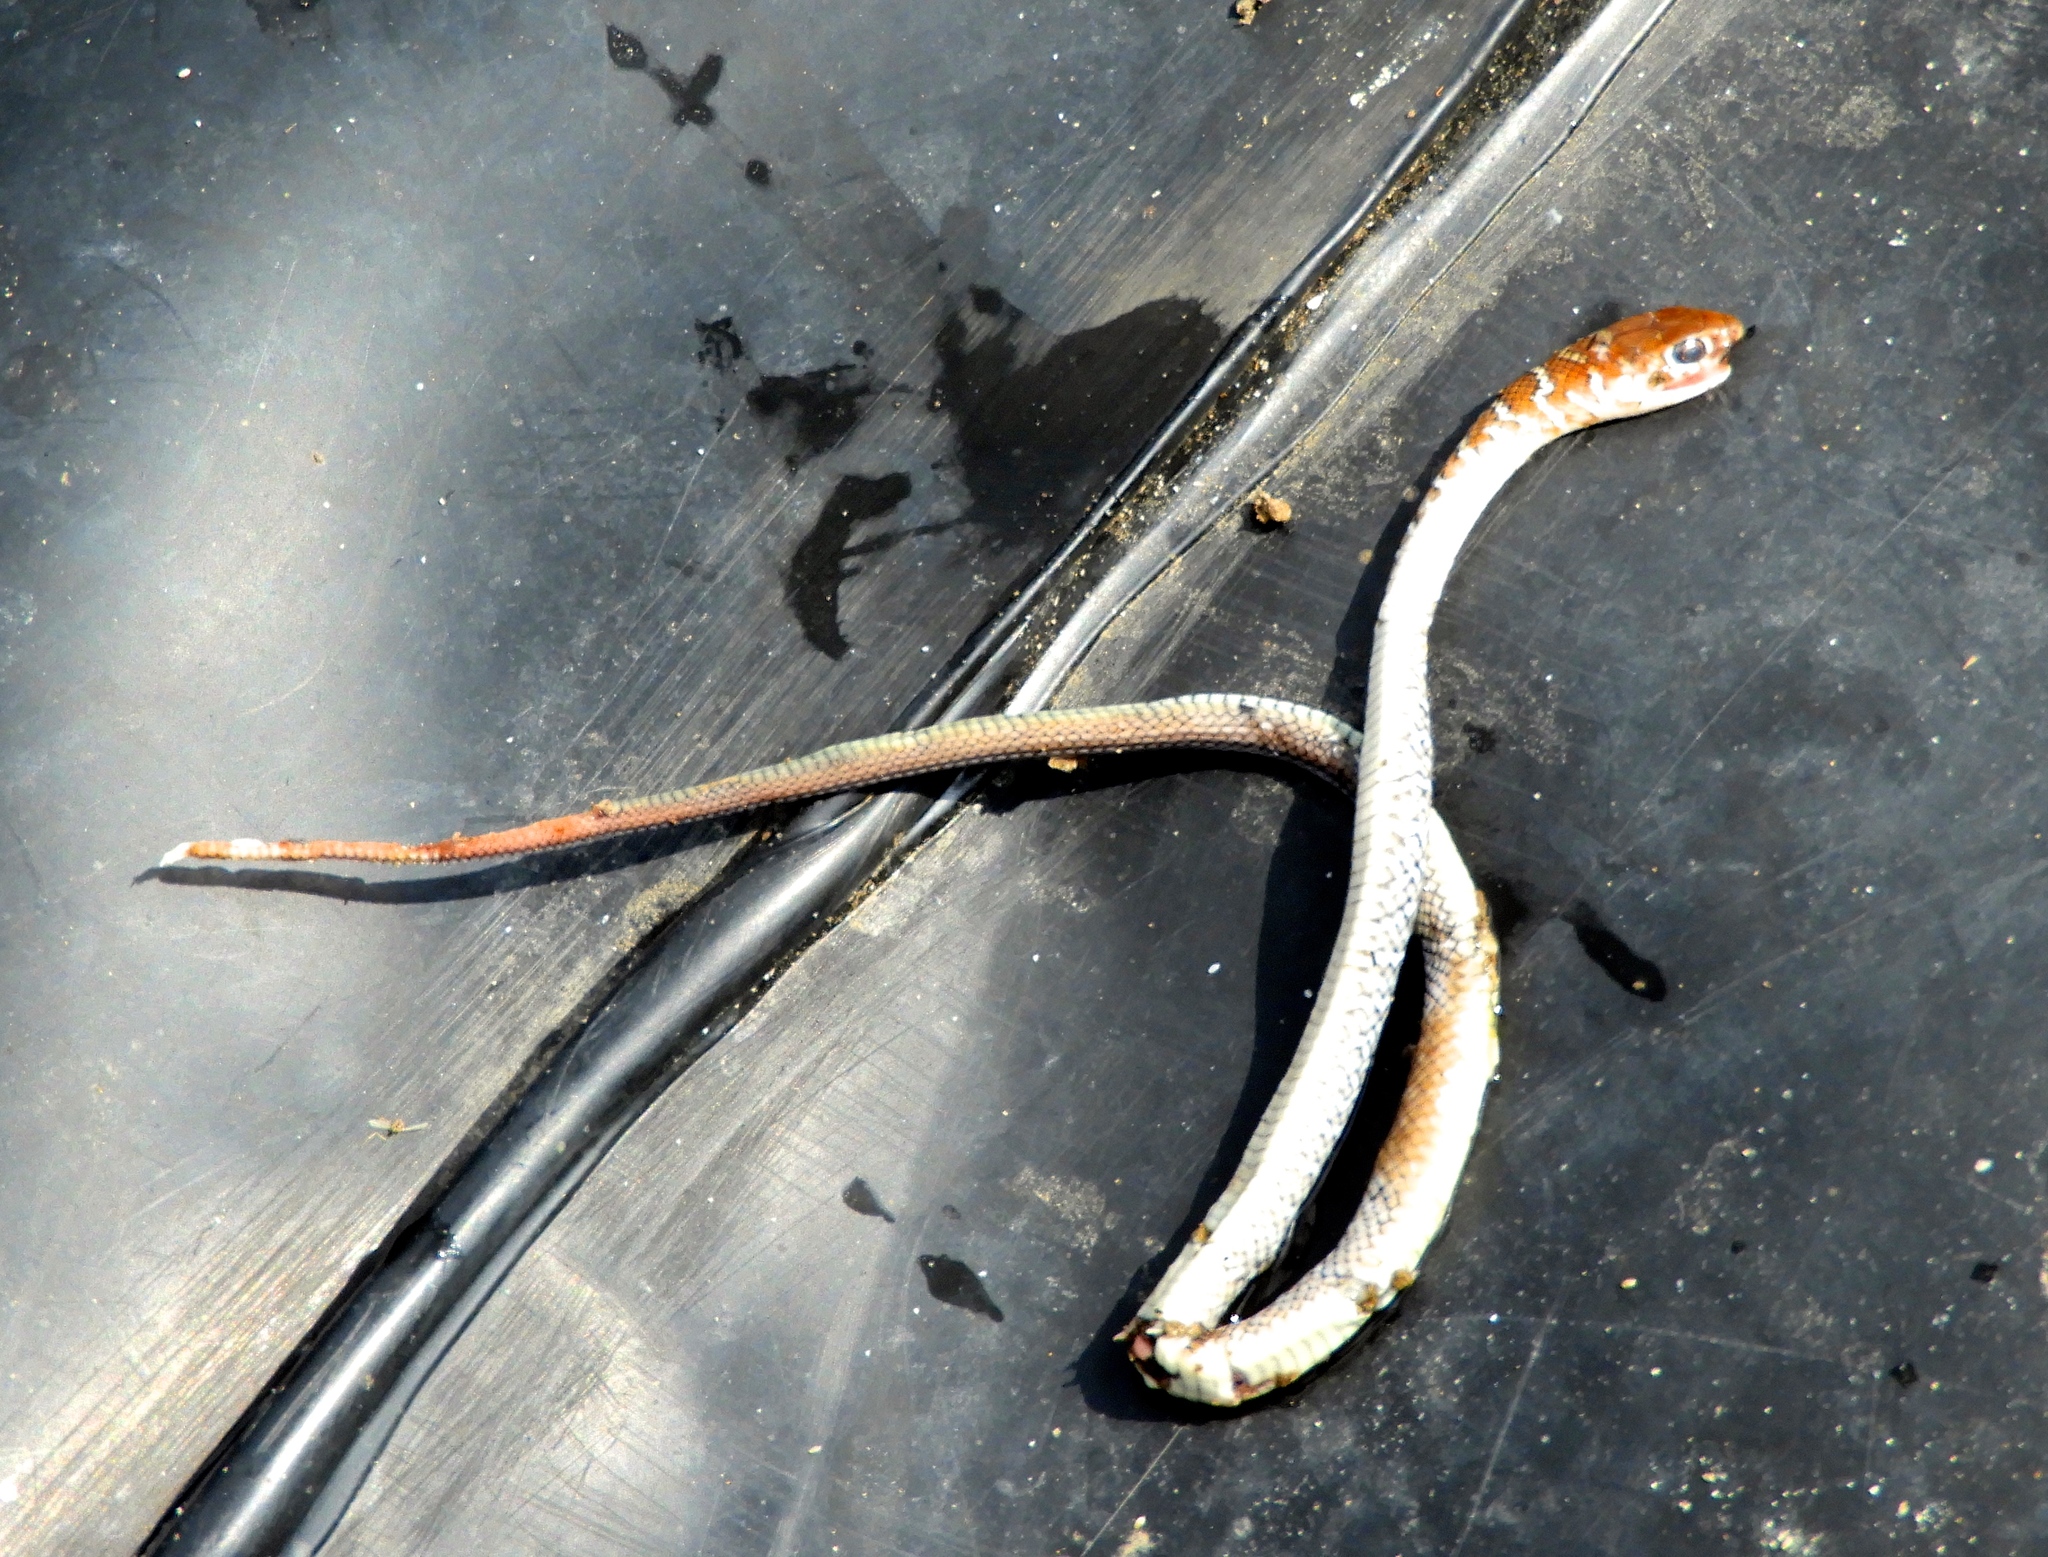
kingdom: Animalia
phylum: Chordata
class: Squamata
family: Colubridae
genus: Masticophis
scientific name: Masticophis mentovarius
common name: Neotropical whip snake
